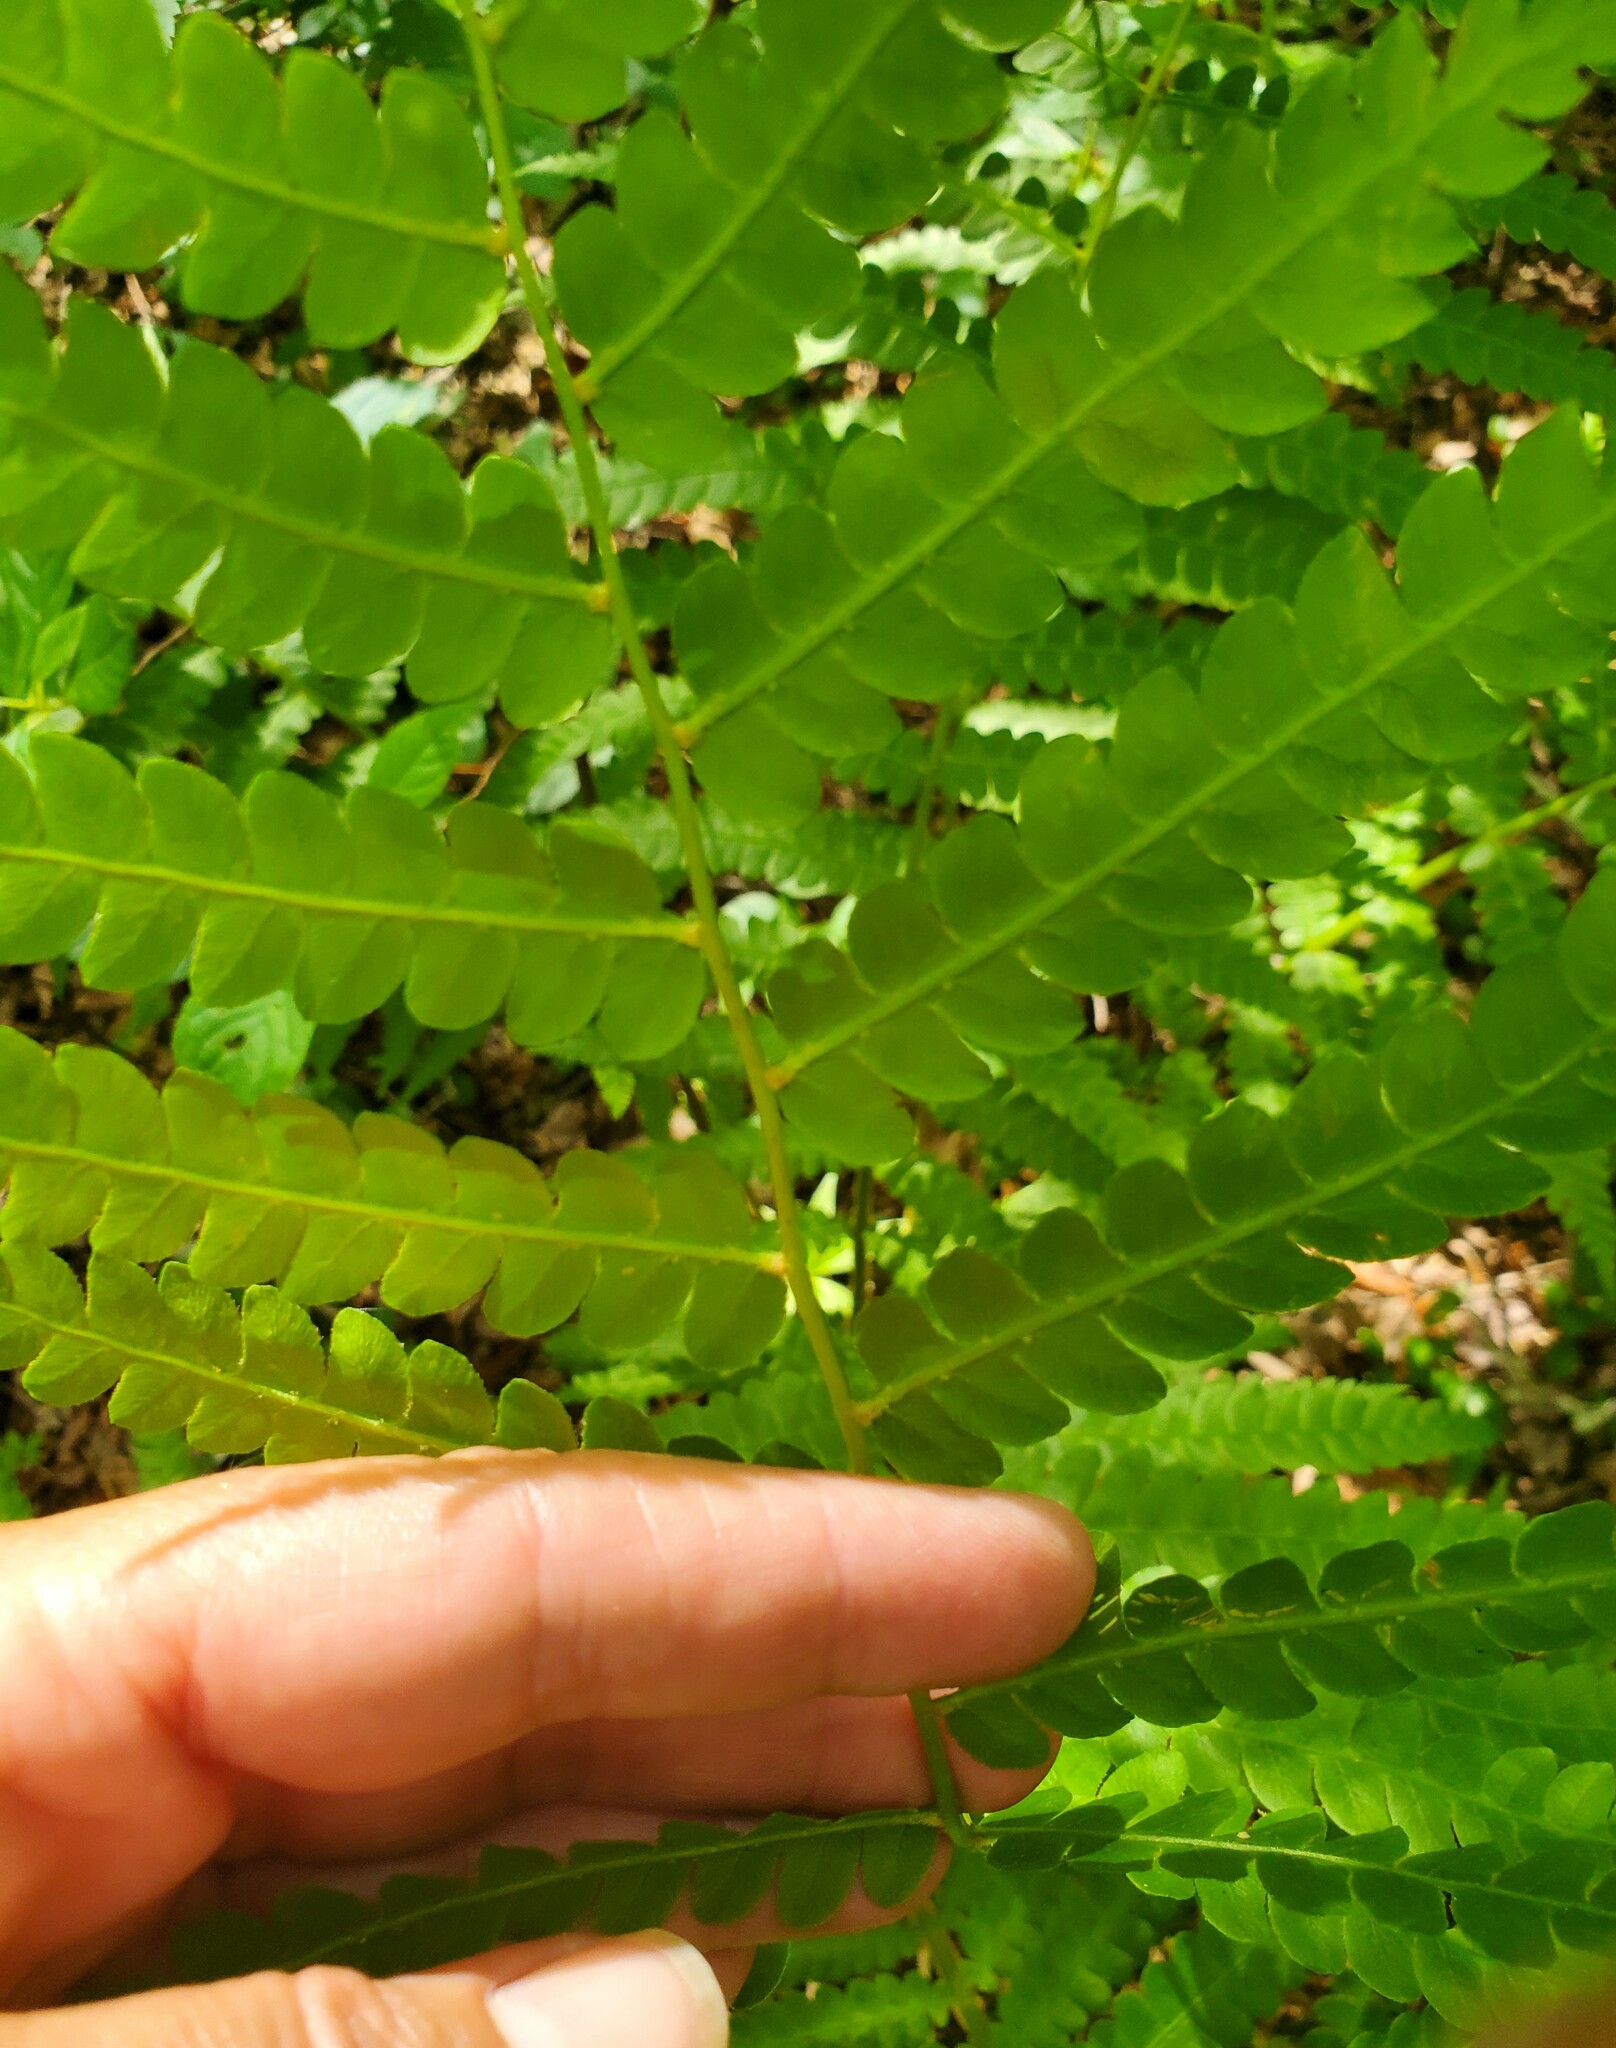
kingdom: Plantae
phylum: Tracheophyta
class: Polypodiopsida
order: Osmundales
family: Osmundaceae
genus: Osmundastrum
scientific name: Osmundastrum cinnamomeum
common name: Cinnamon fern
